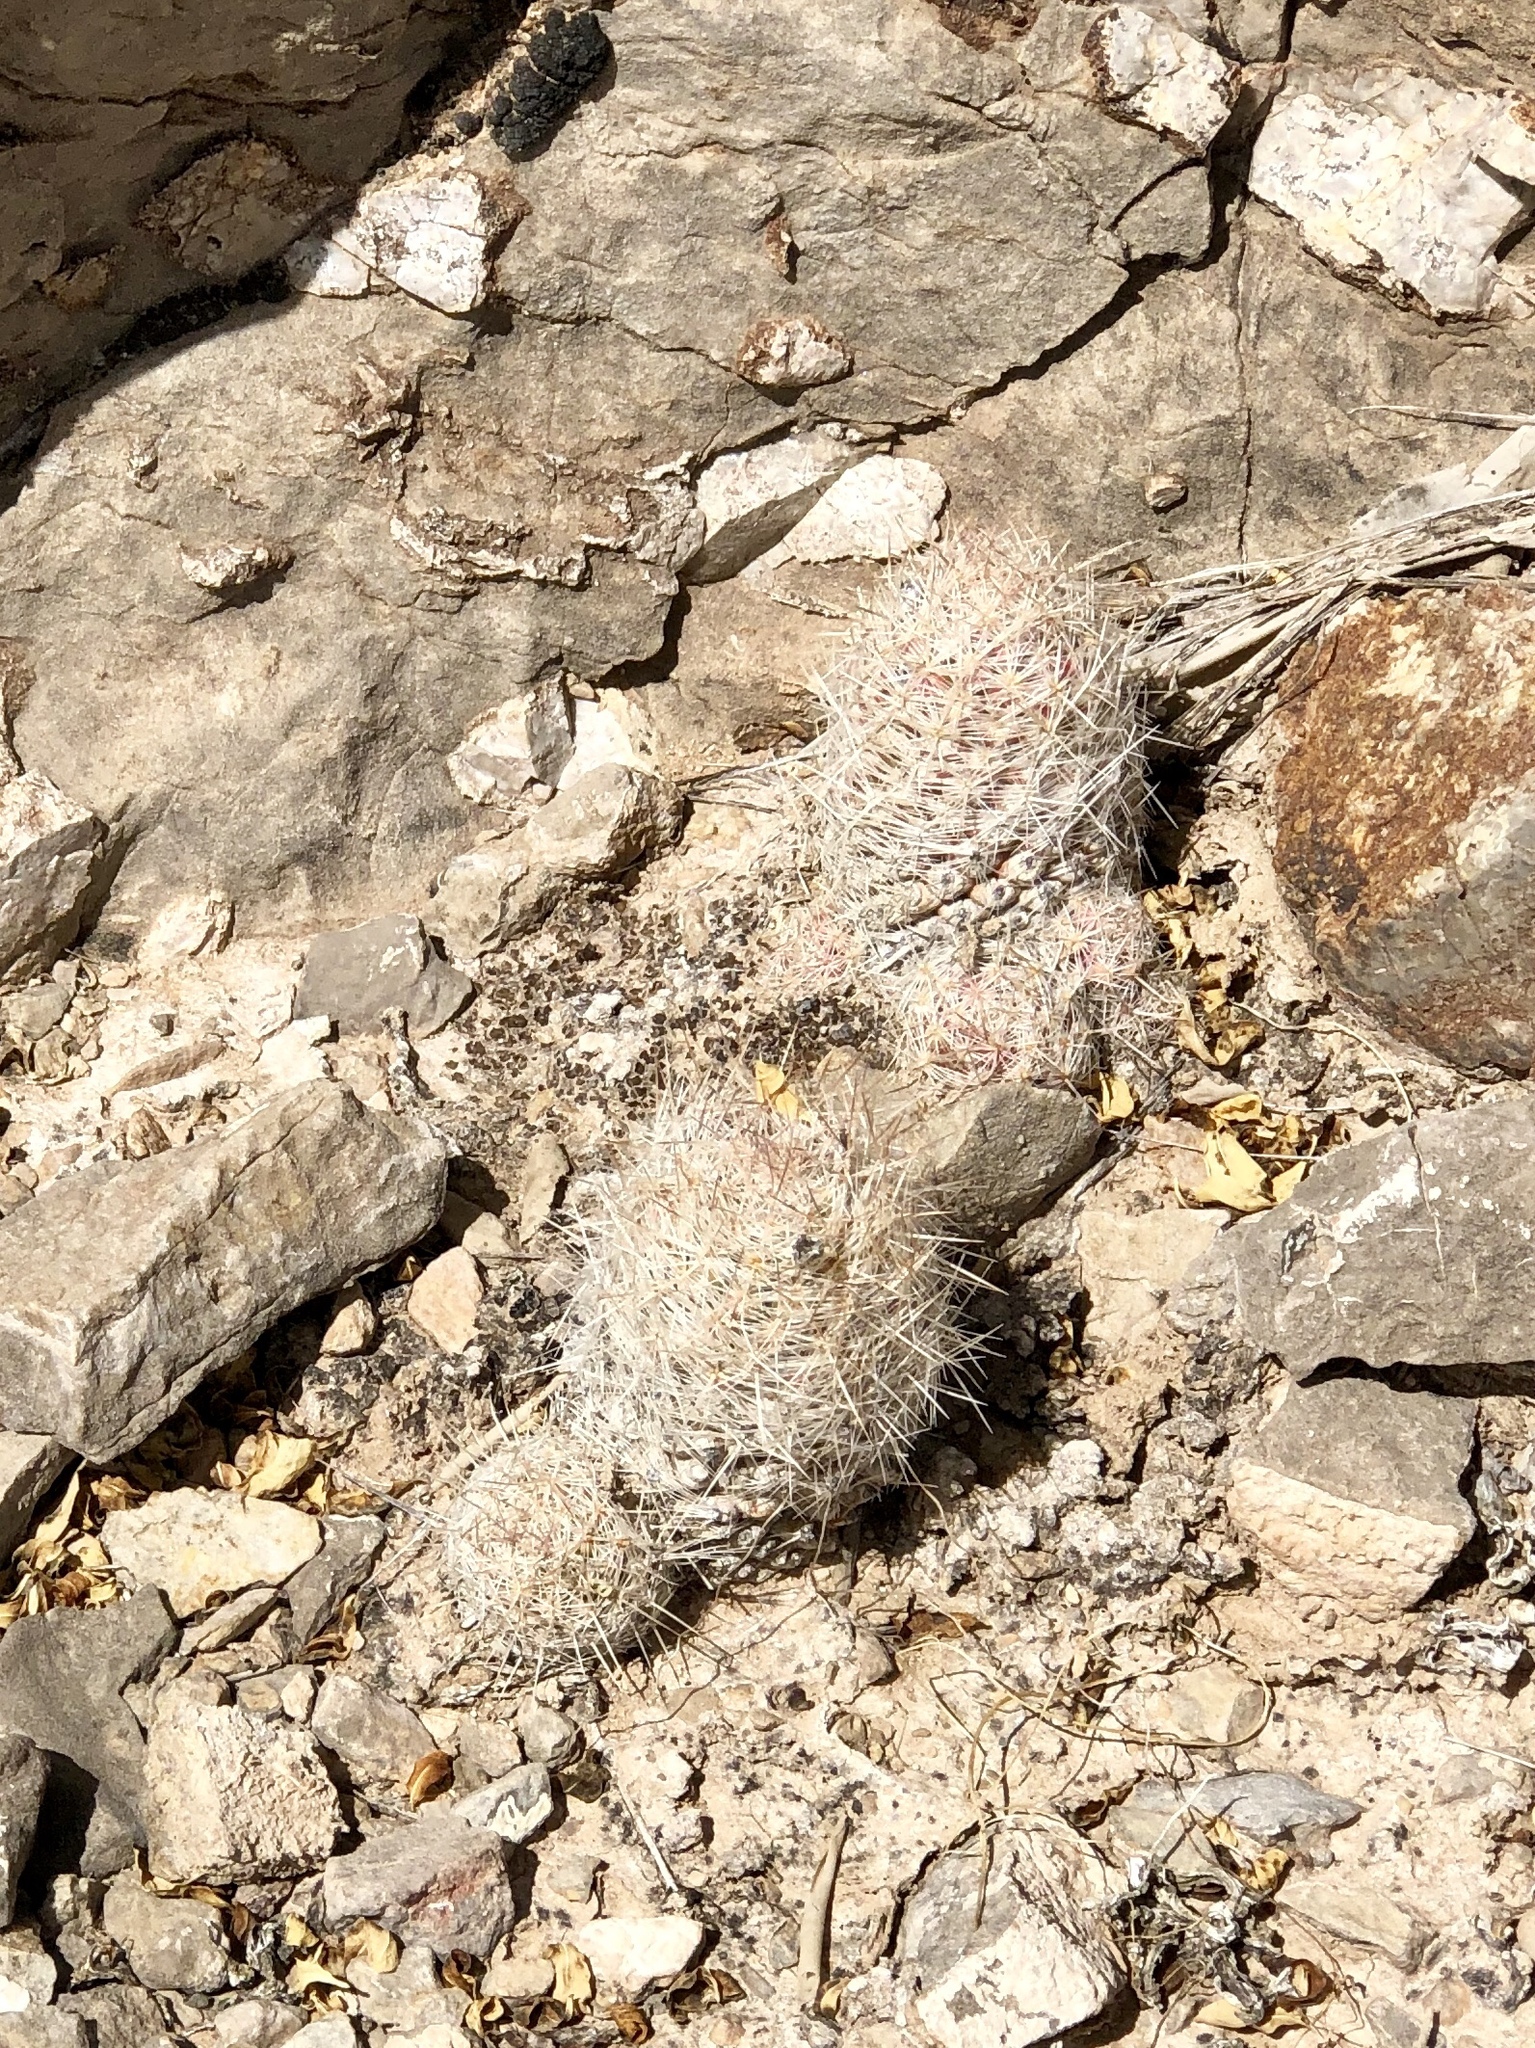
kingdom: Plantae
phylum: Tracheophyta
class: Magnoliopsida
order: Caryophyllales
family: Cactaceae
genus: Pelecyphora
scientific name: Pelecyphora tuberculosa
